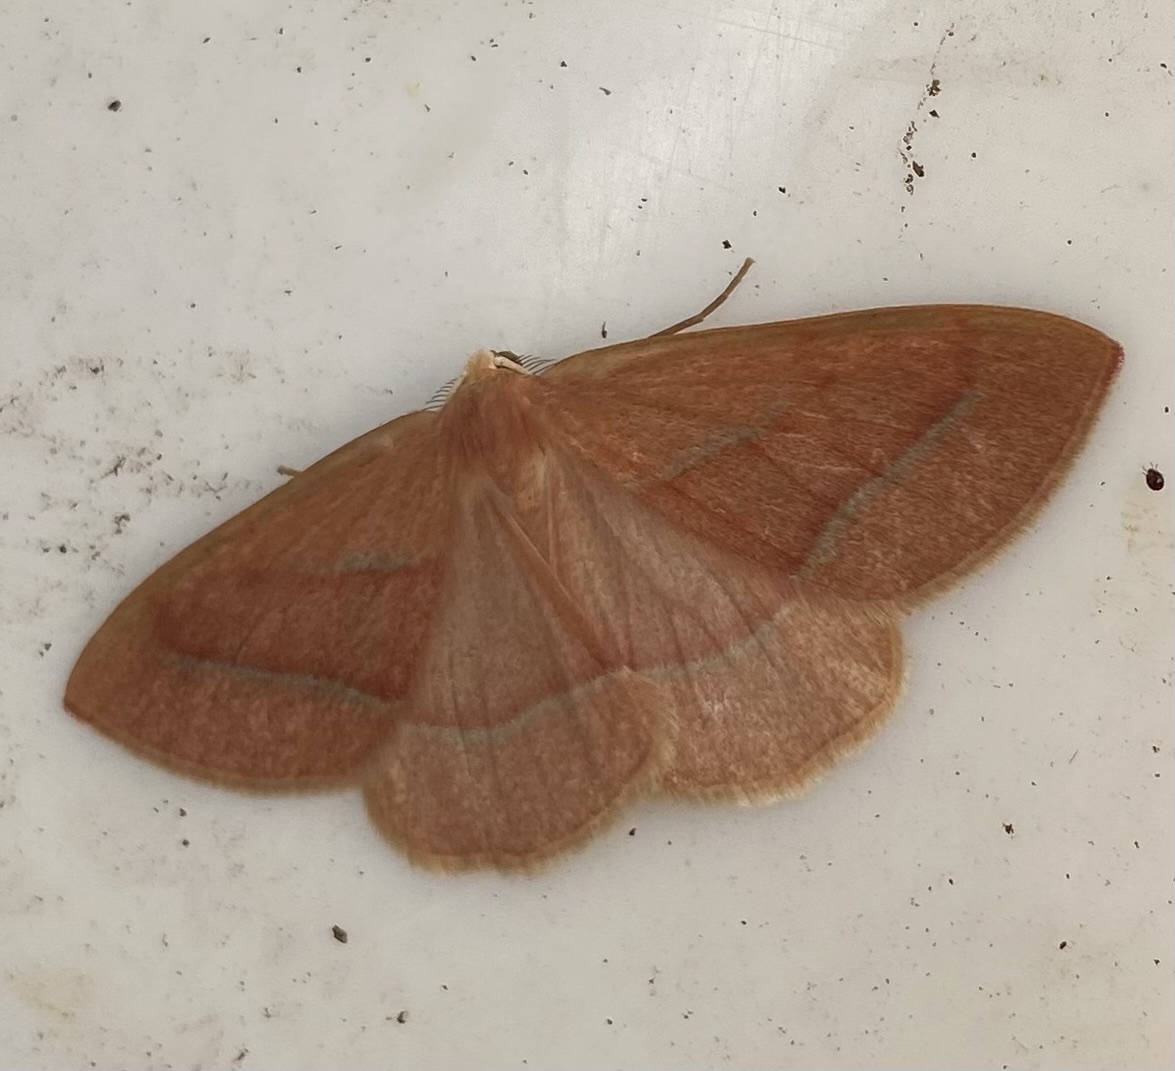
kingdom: Animalia
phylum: Arthropoda
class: Insecta
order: Lepidoptera
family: Geometridae
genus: Hylaea
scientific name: Hylaea fasciaria
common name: Barred red
